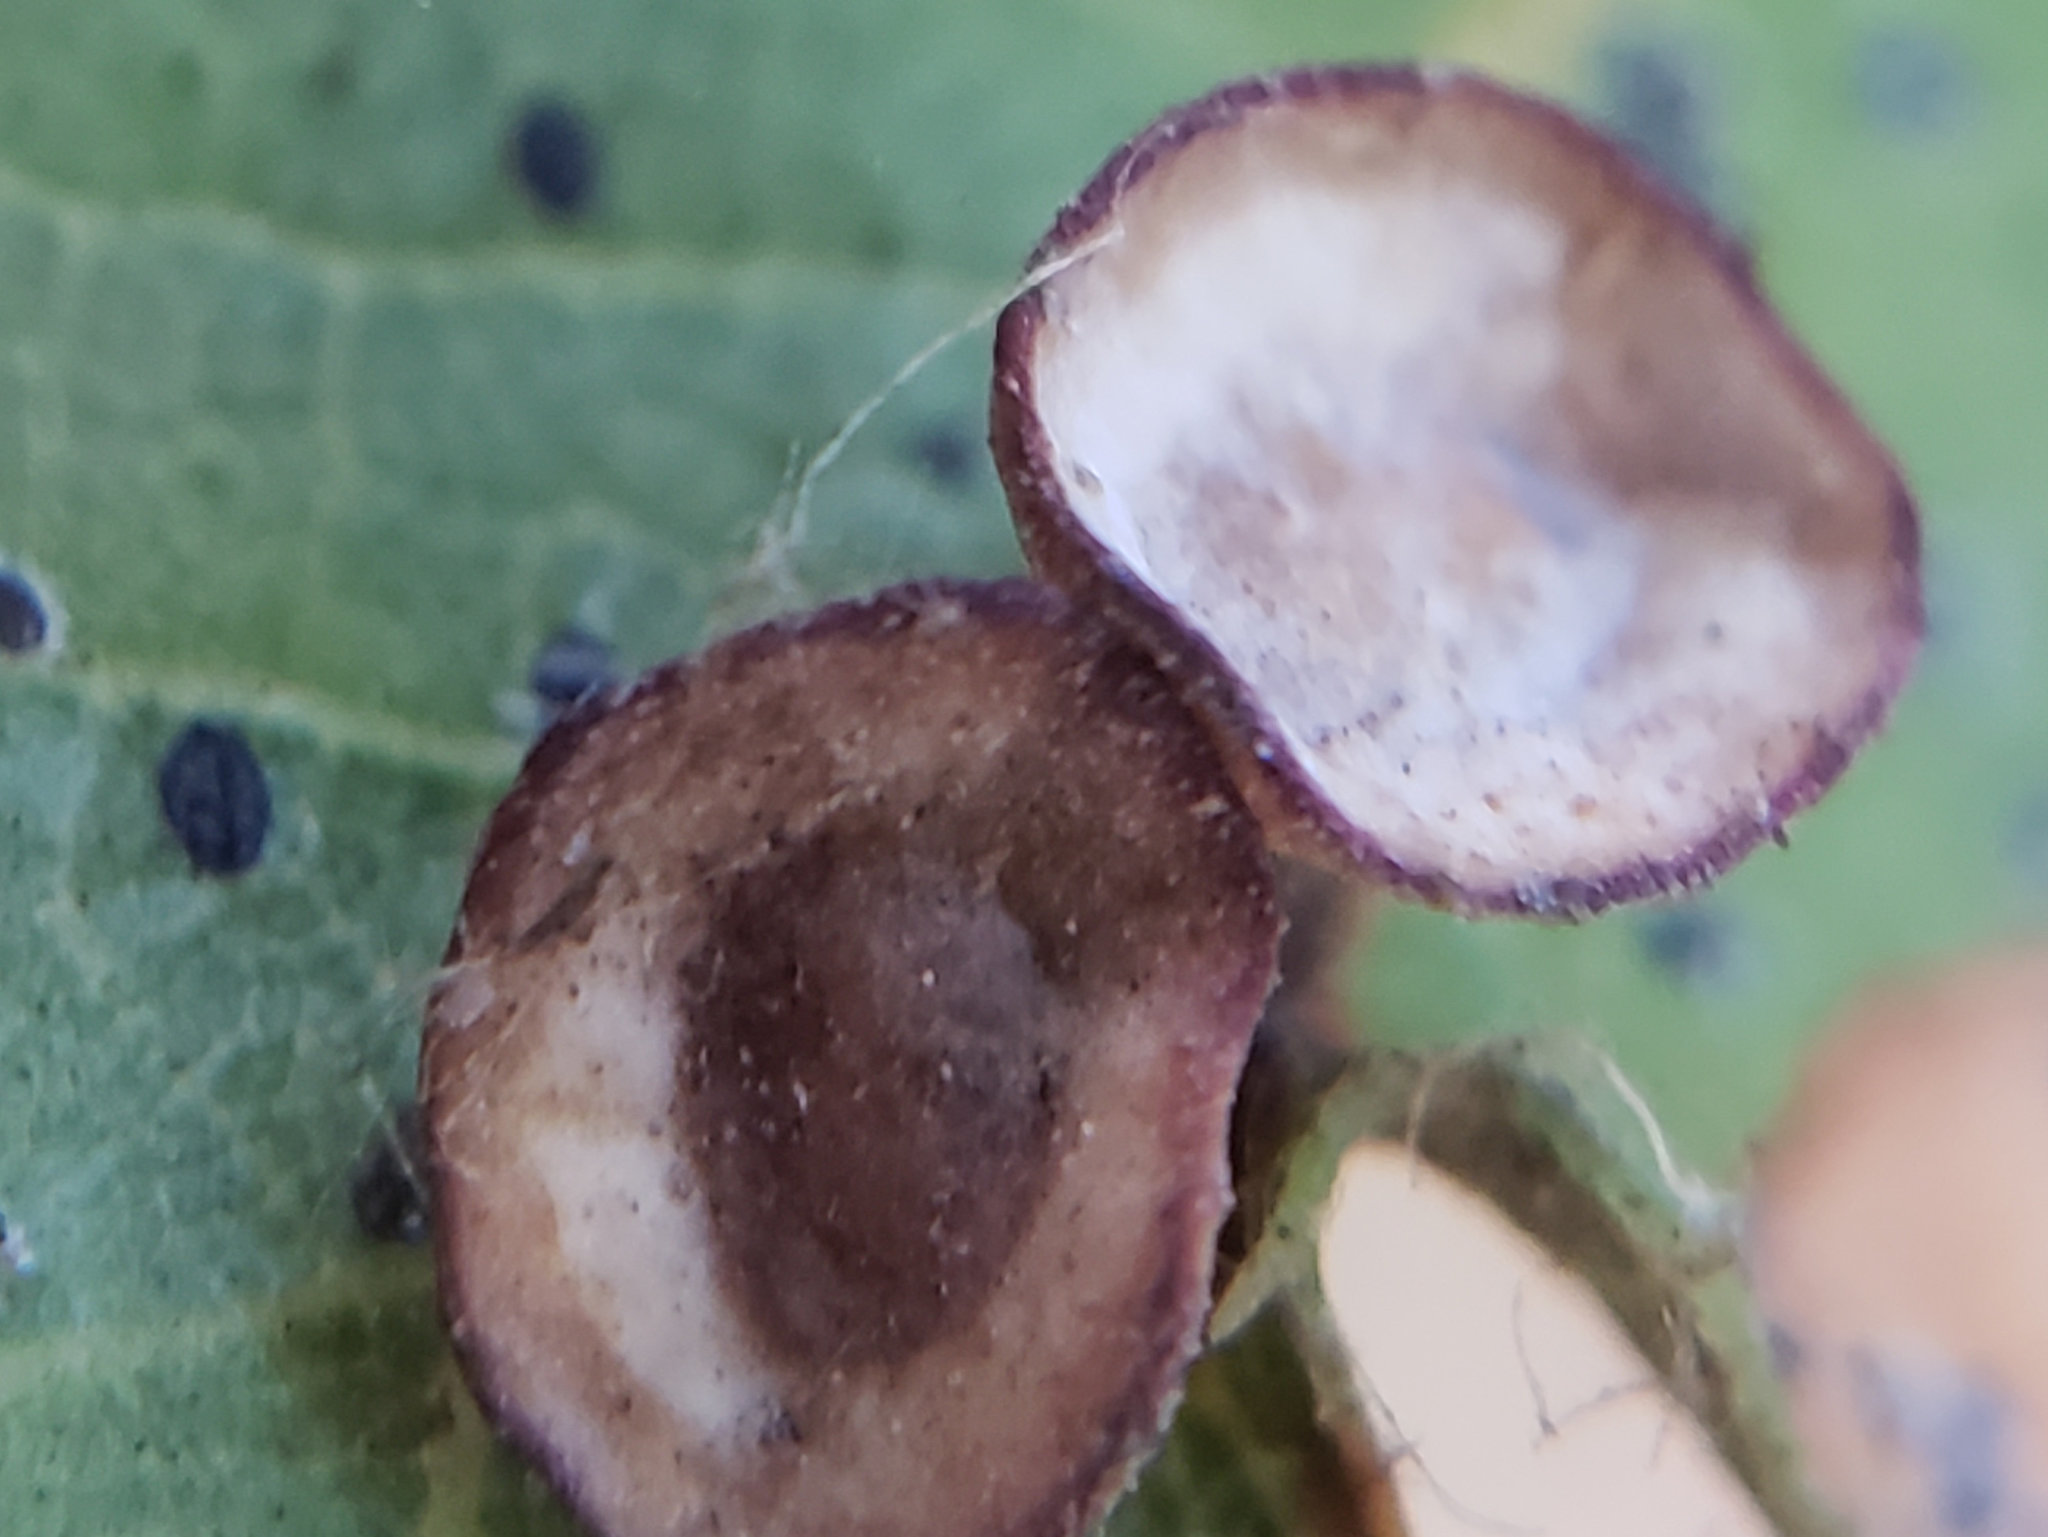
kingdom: Animalia
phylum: Arthropoda
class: Insecta
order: Hymenoptera
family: Cynipidae
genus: Amphibolips
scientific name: Amphibolips quercuspomiformis
